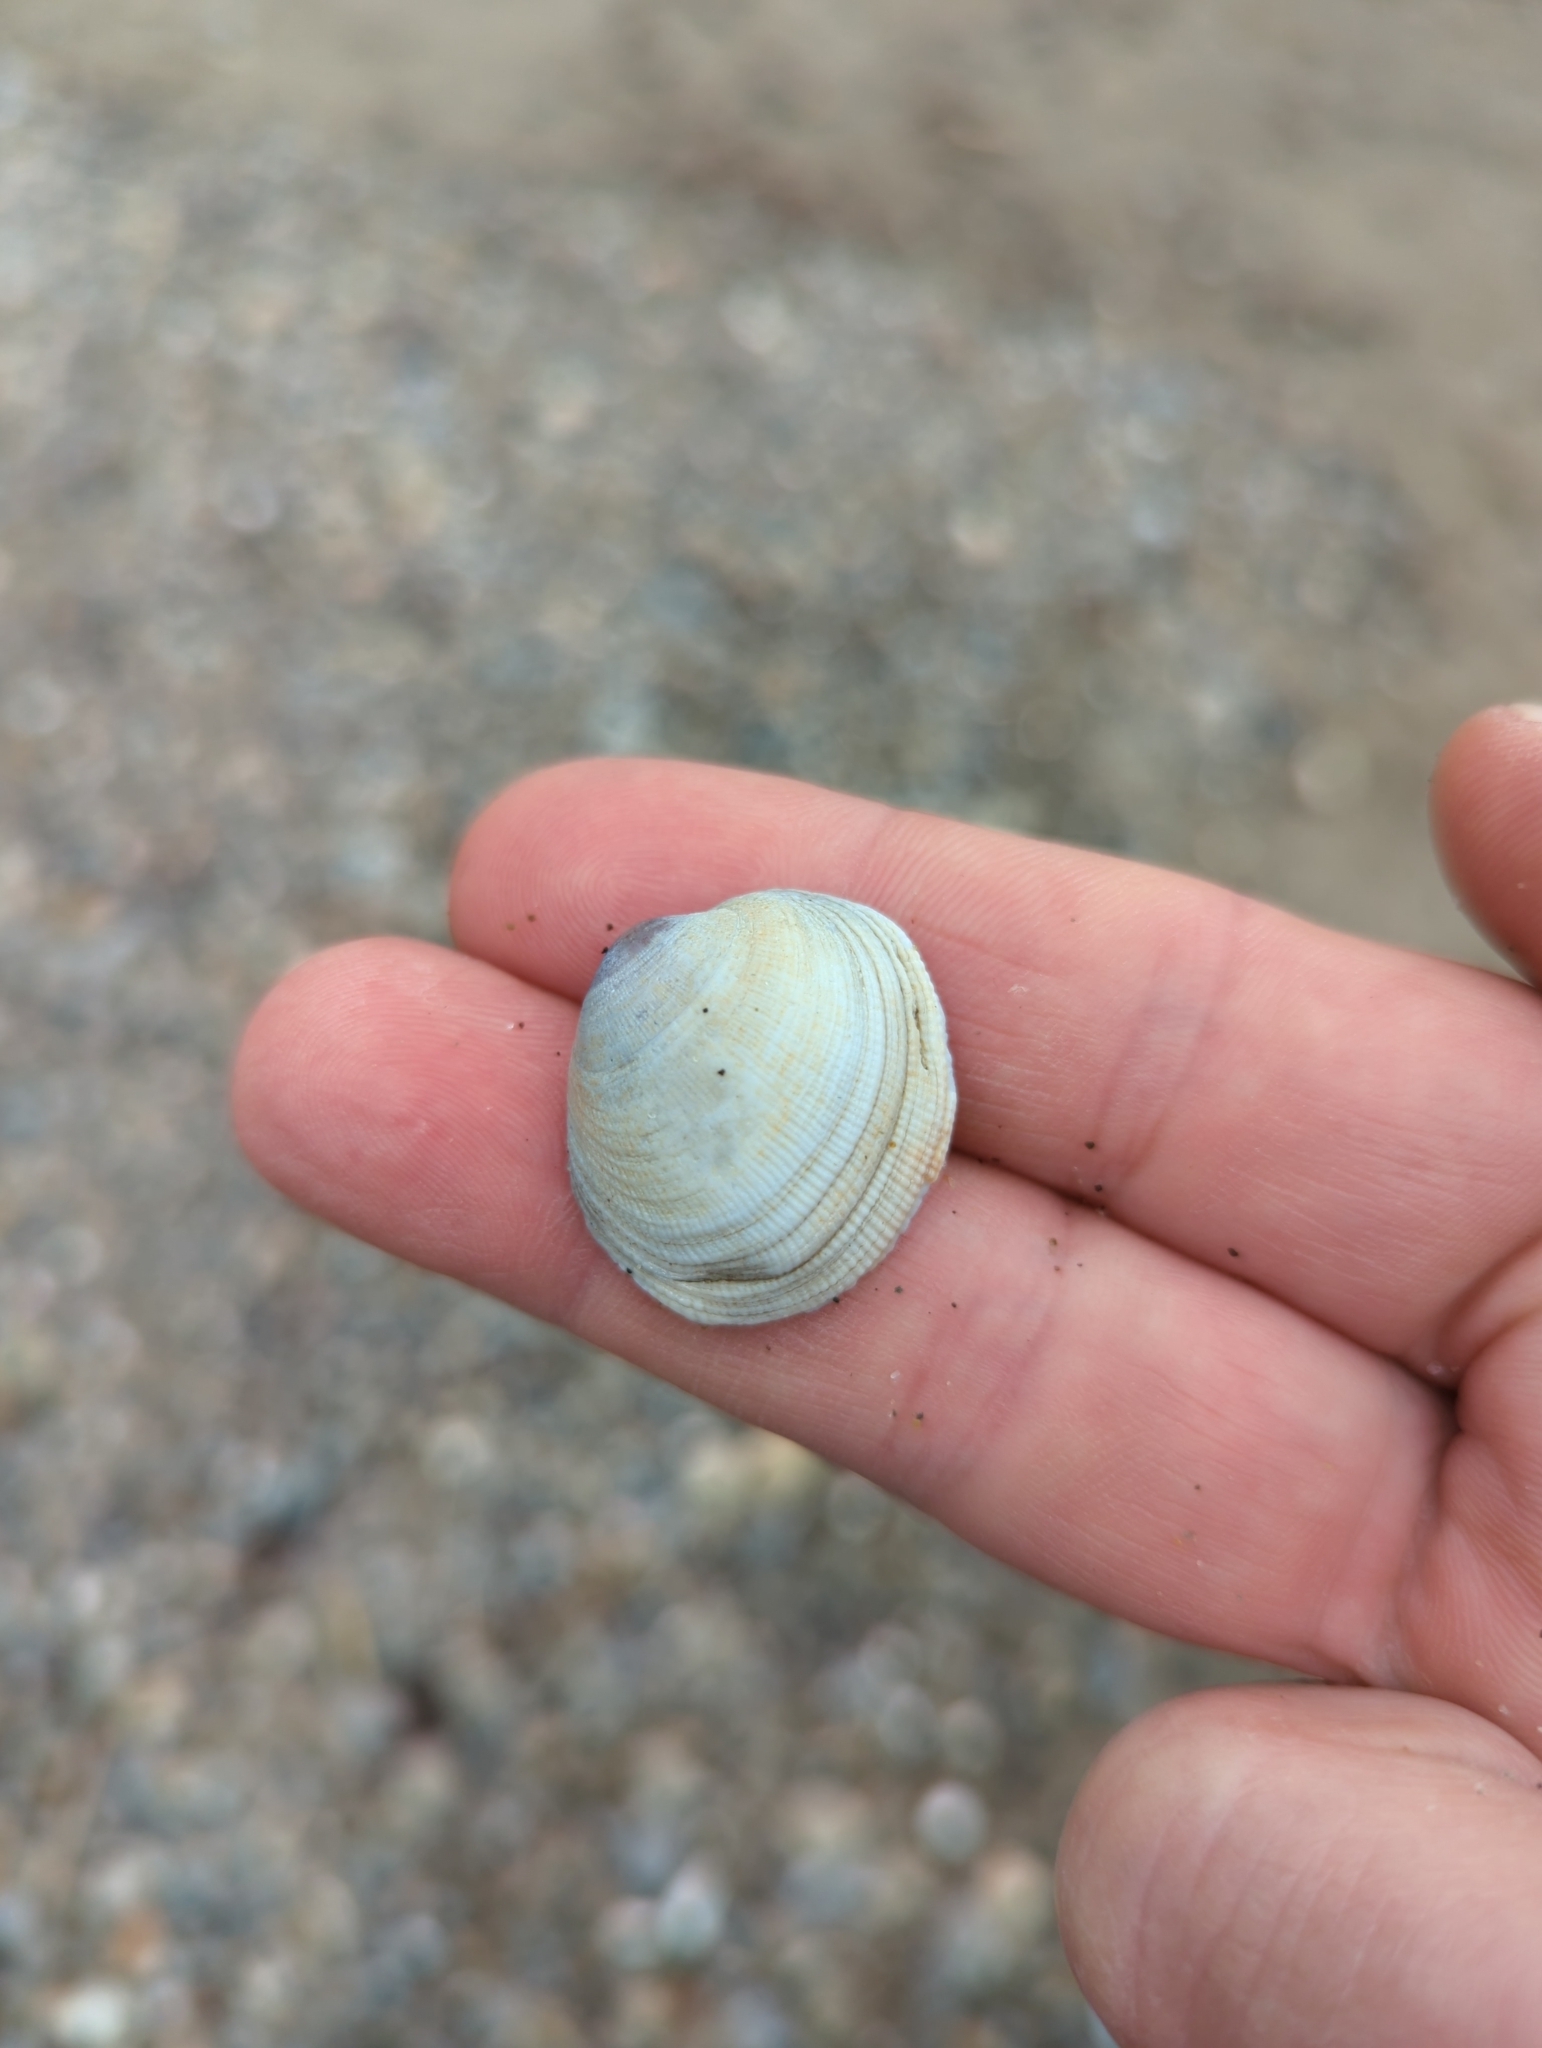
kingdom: Animalia
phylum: Mollusca
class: Bivalvia
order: Venerida
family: Veneridae
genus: Leukoma
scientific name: Leukoma staminea
